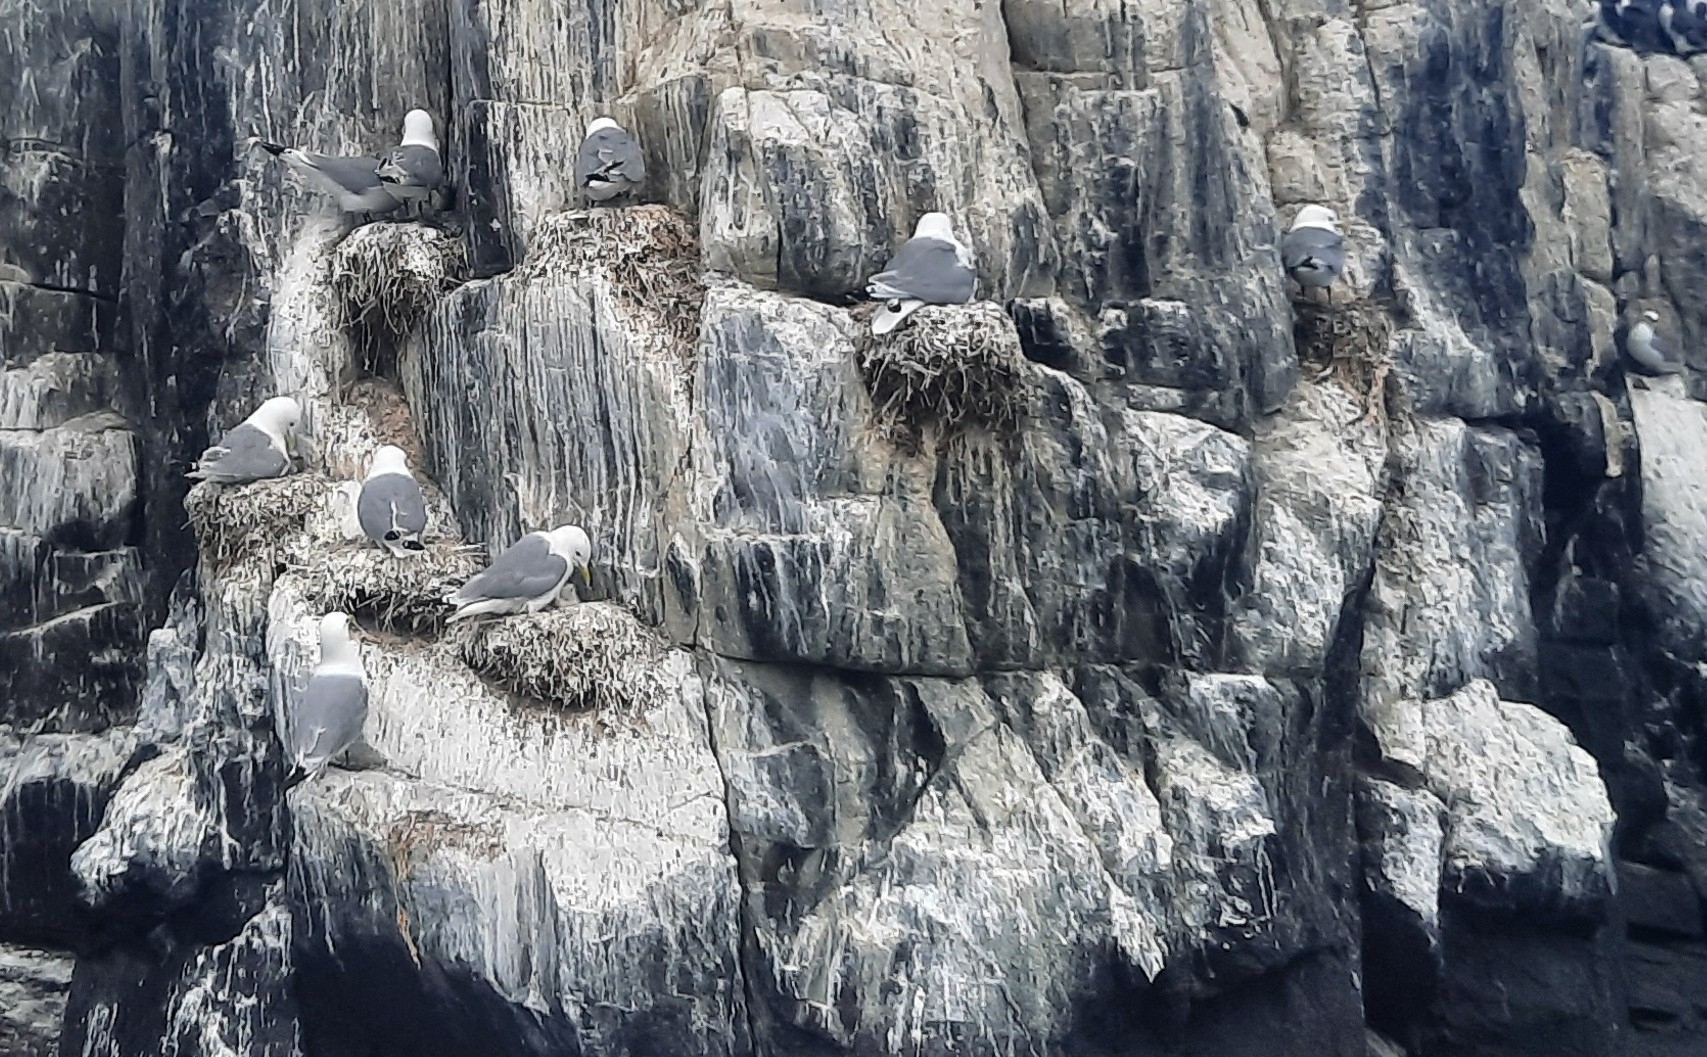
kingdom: Animalia
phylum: Chordata
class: Aves
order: Charadriiformes
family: Laridae
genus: Rissa
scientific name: Rissa tridactyla
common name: Black-legged kittiwake
